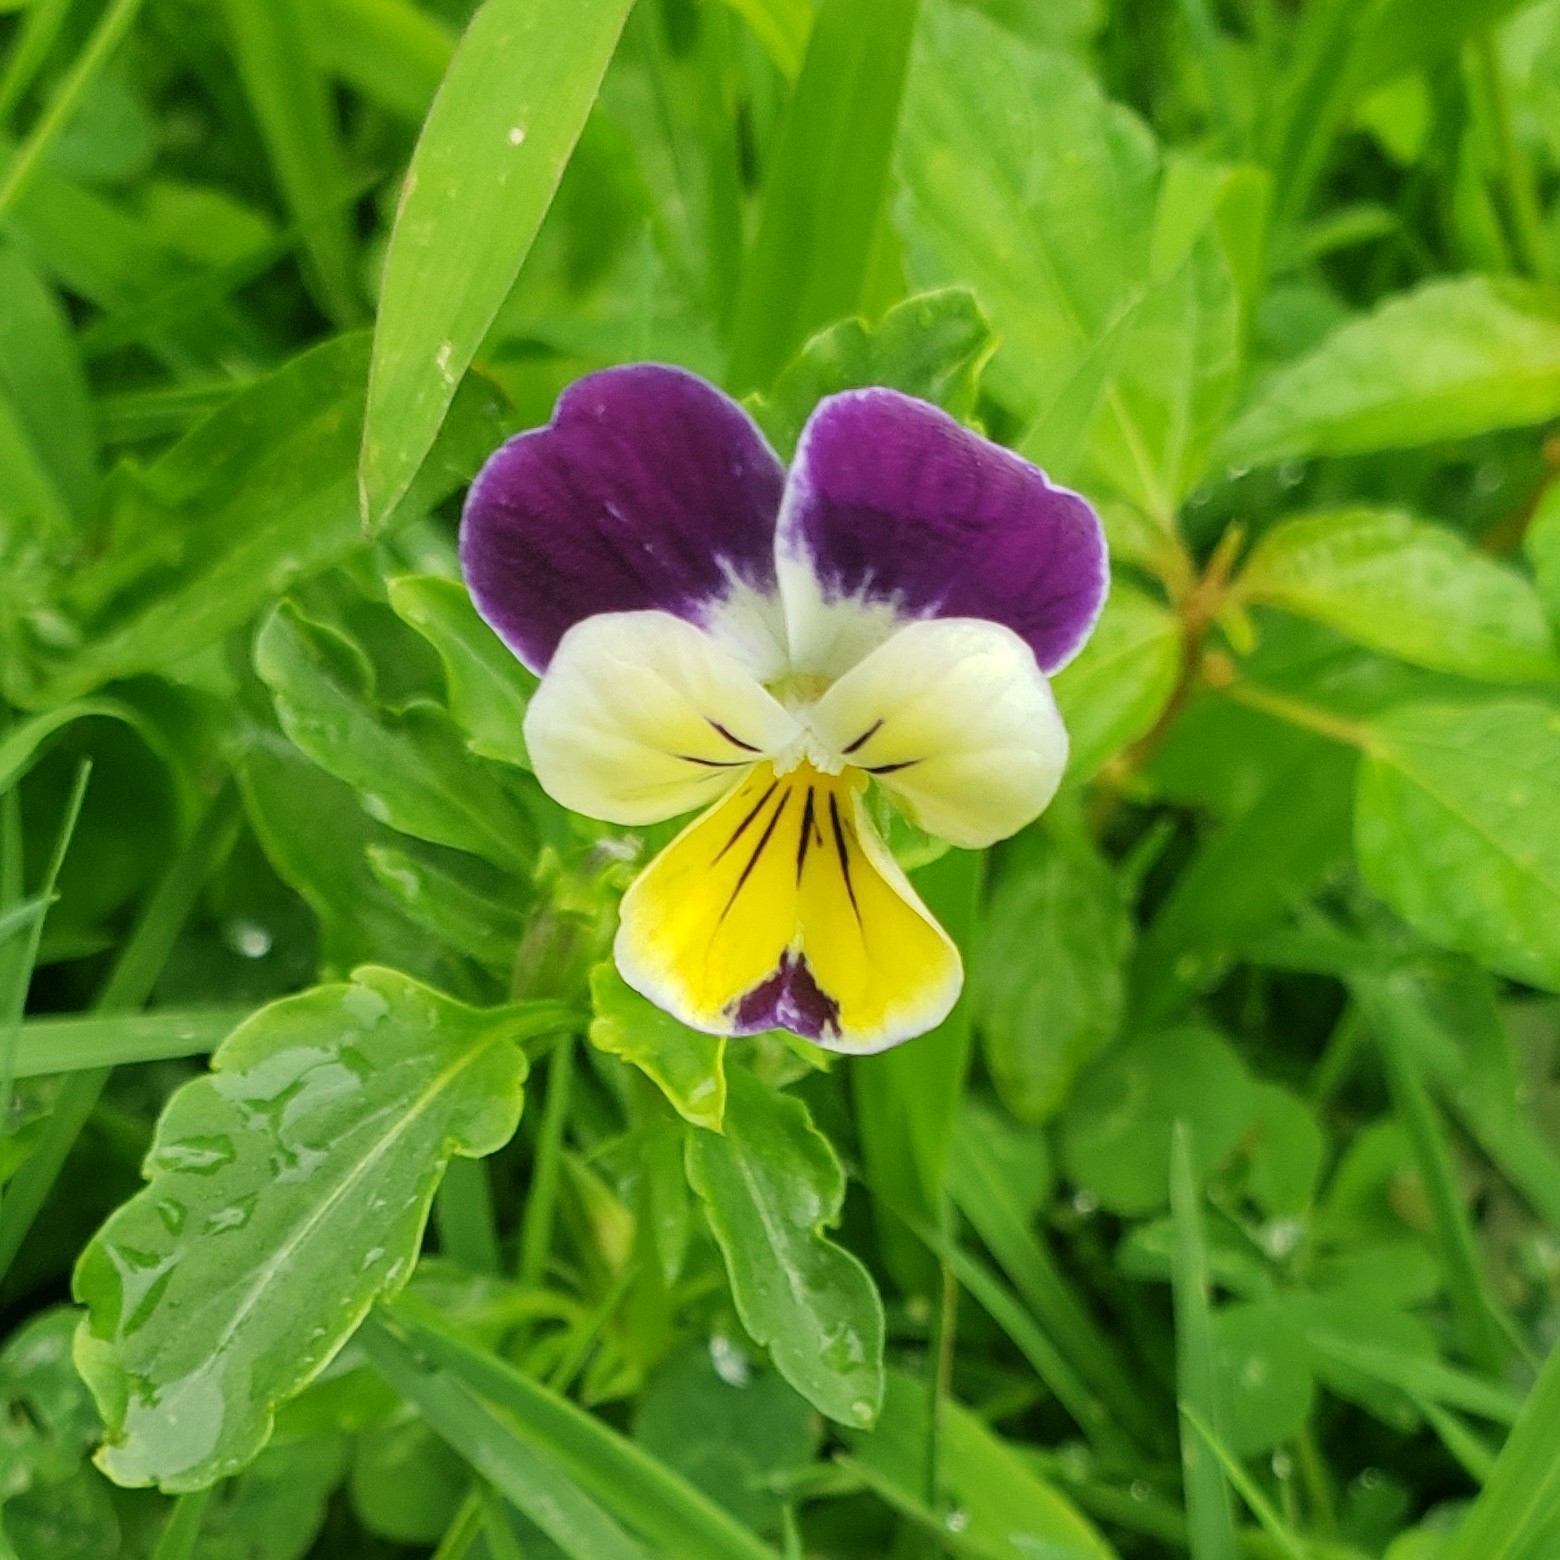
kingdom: Plantae
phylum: Tracheophyta
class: Magnoliopsida
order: Malpighiales
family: Violaceae
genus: Viola
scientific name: Viola williamsii
